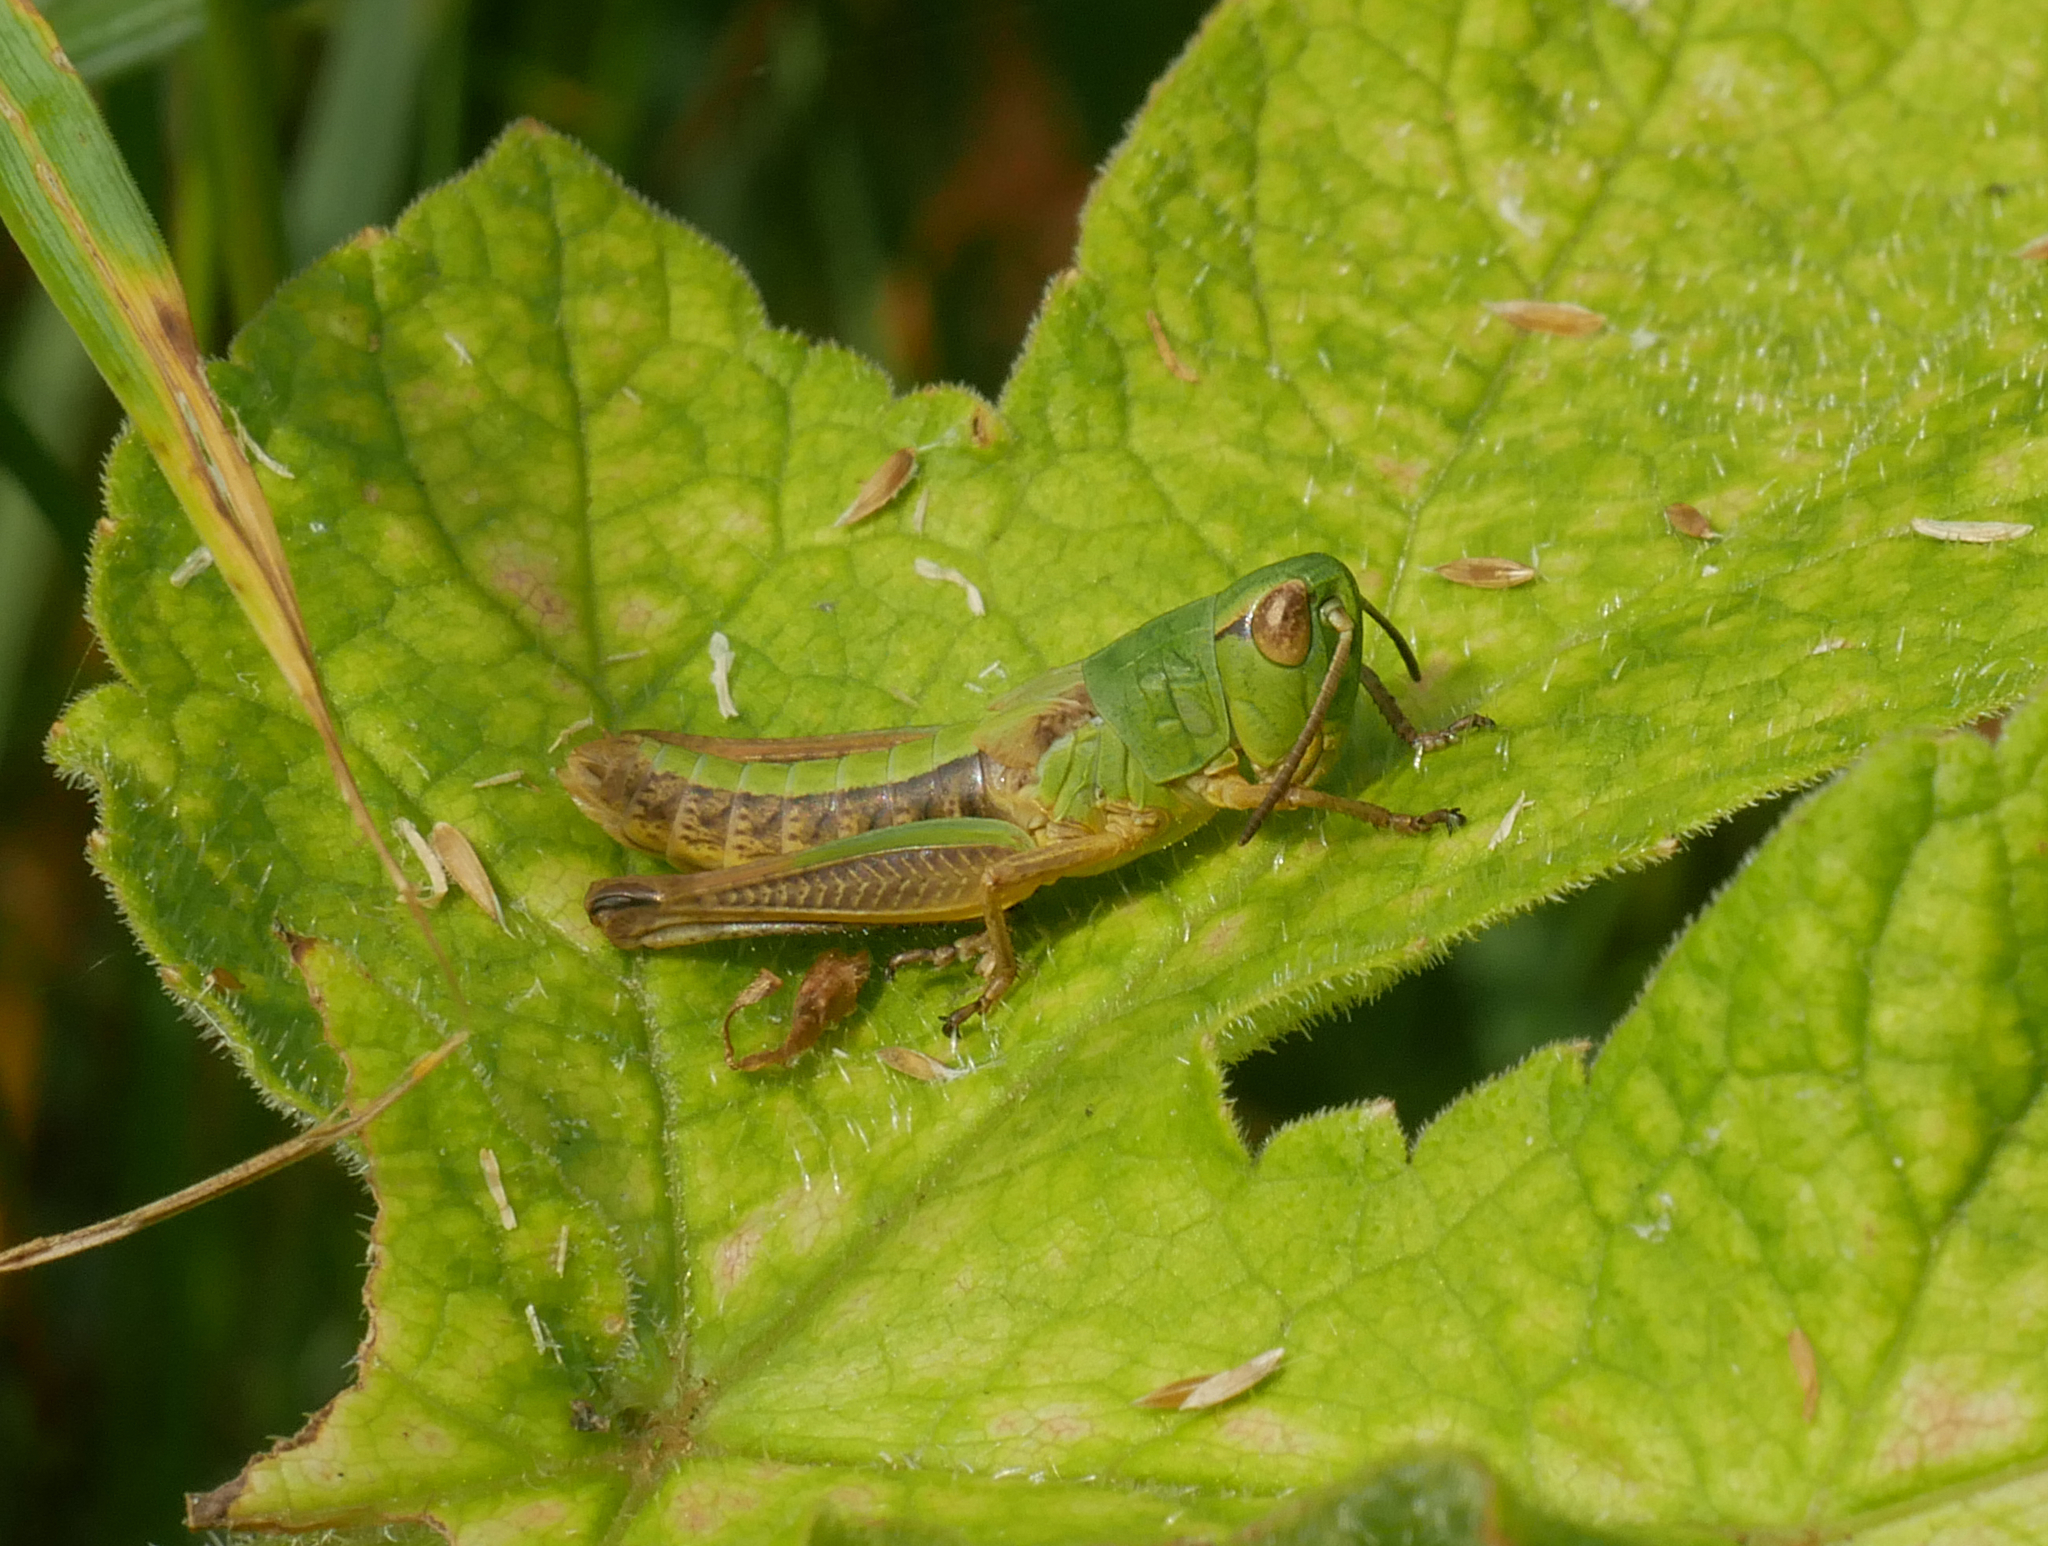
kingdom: Animalia
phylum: Arthropoda
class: Insecta
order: Orthoptera
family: Acrididae
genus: Pseudochorthippus
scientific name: Pseudochorthippus parallelus
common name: Meadow grasshopper
